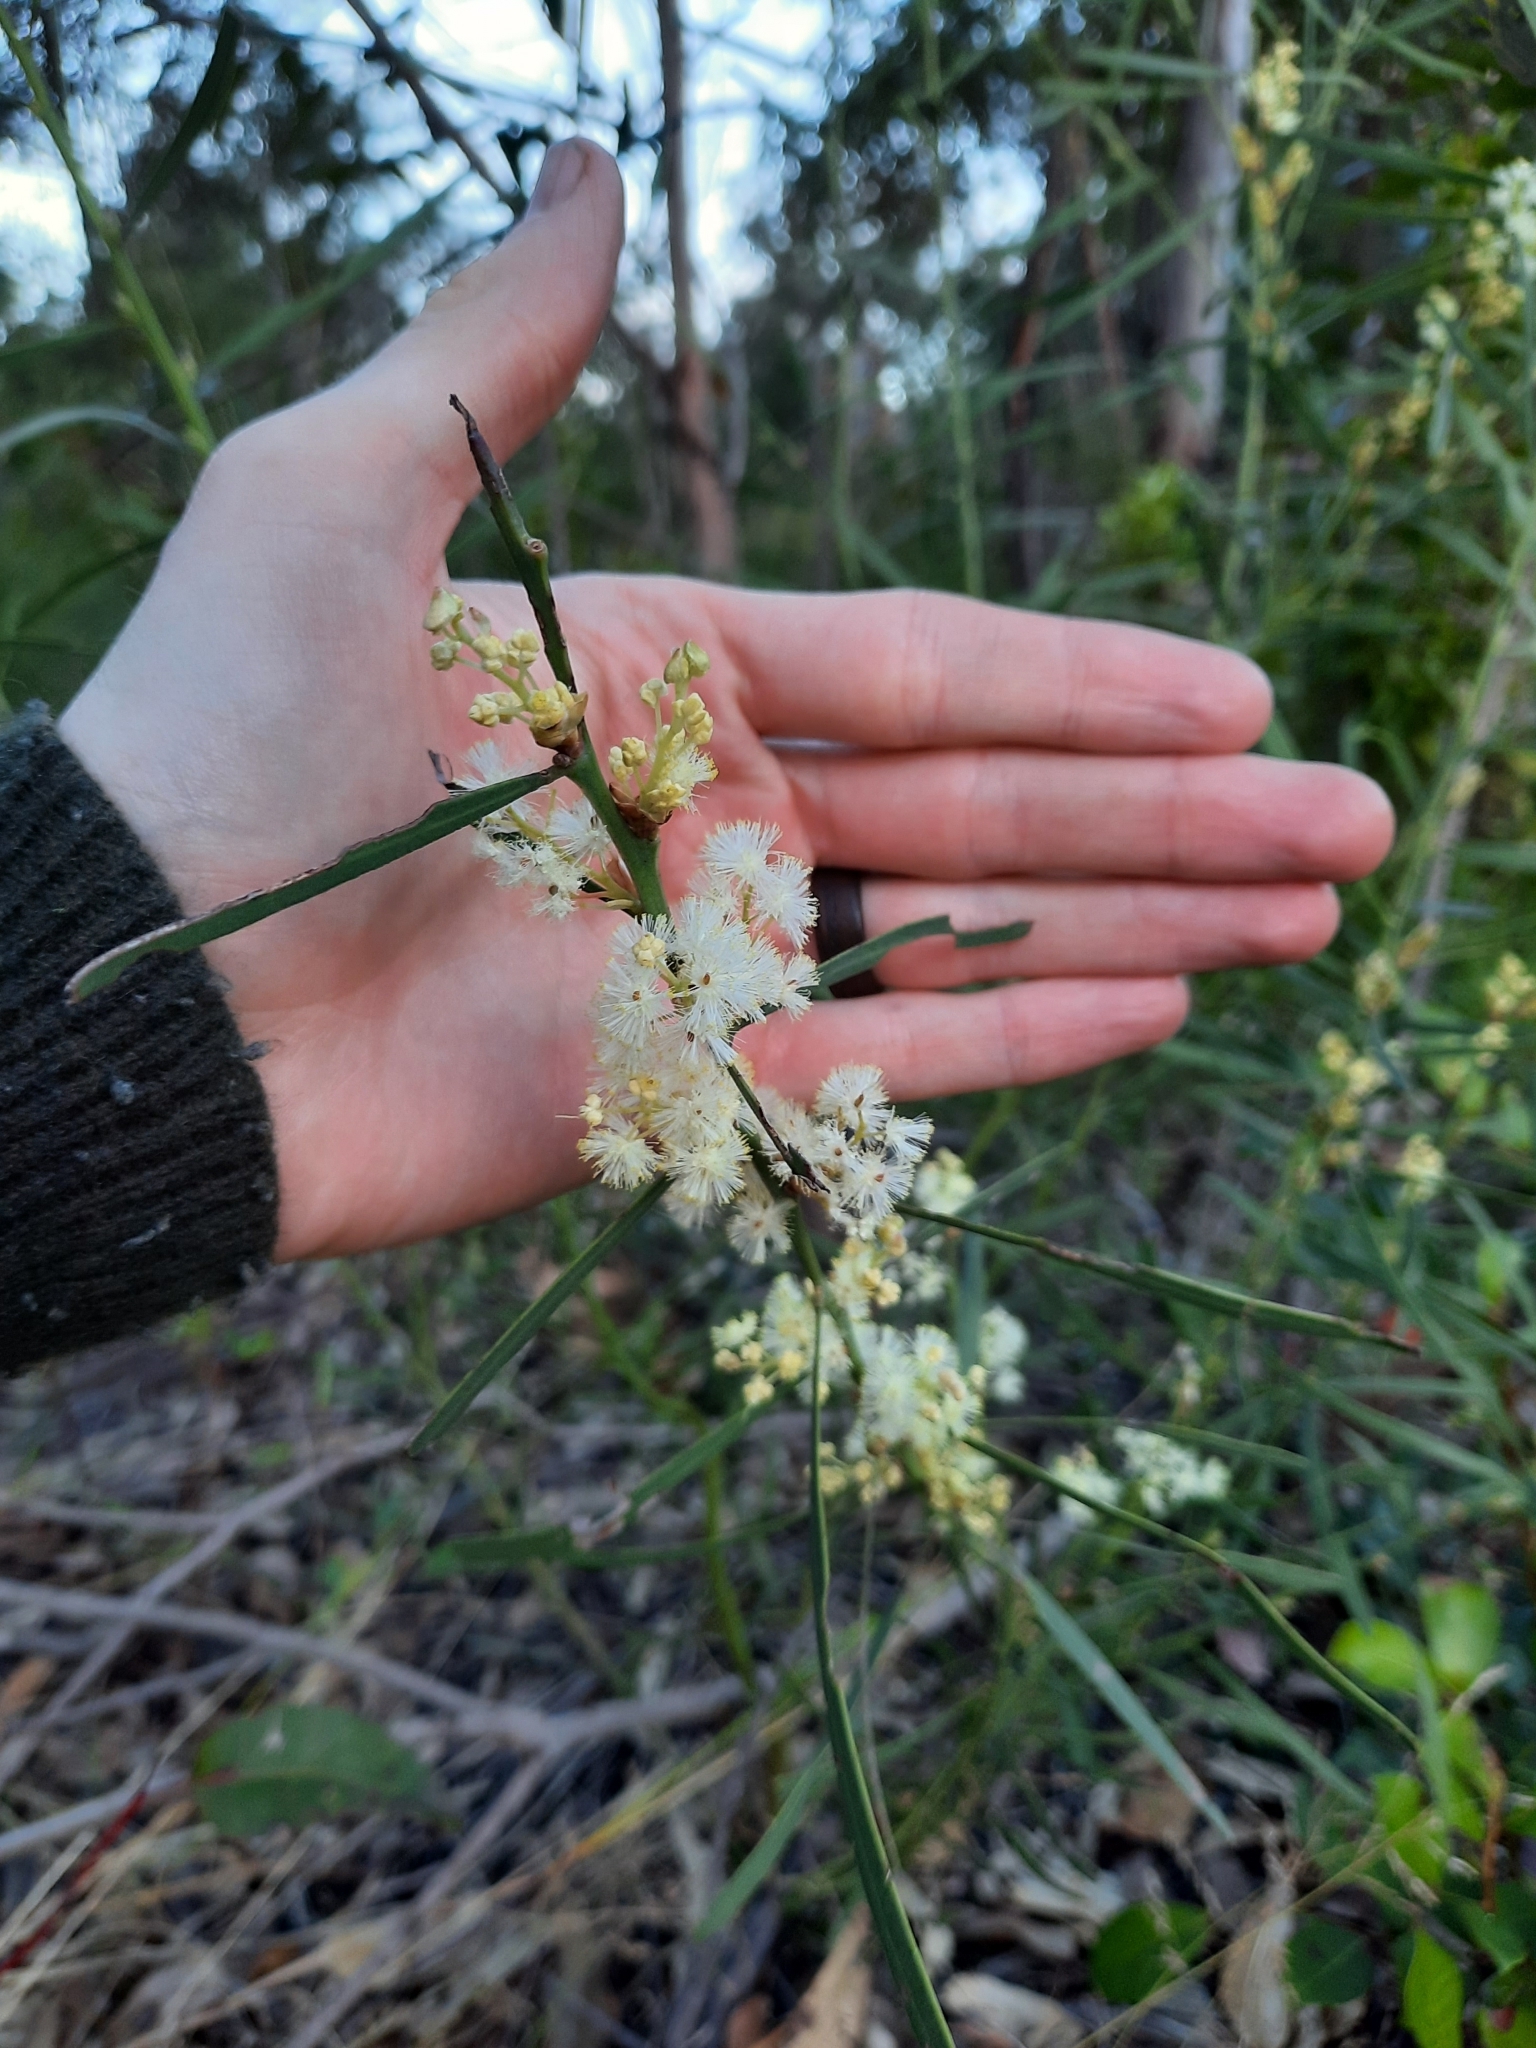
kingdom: Plantae
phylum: Tracheophyta
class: Magnoliopsida
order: Fabales
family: Fabaceae
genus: Acacia
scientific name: Acacia suaveolens
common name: Sweet acacia
